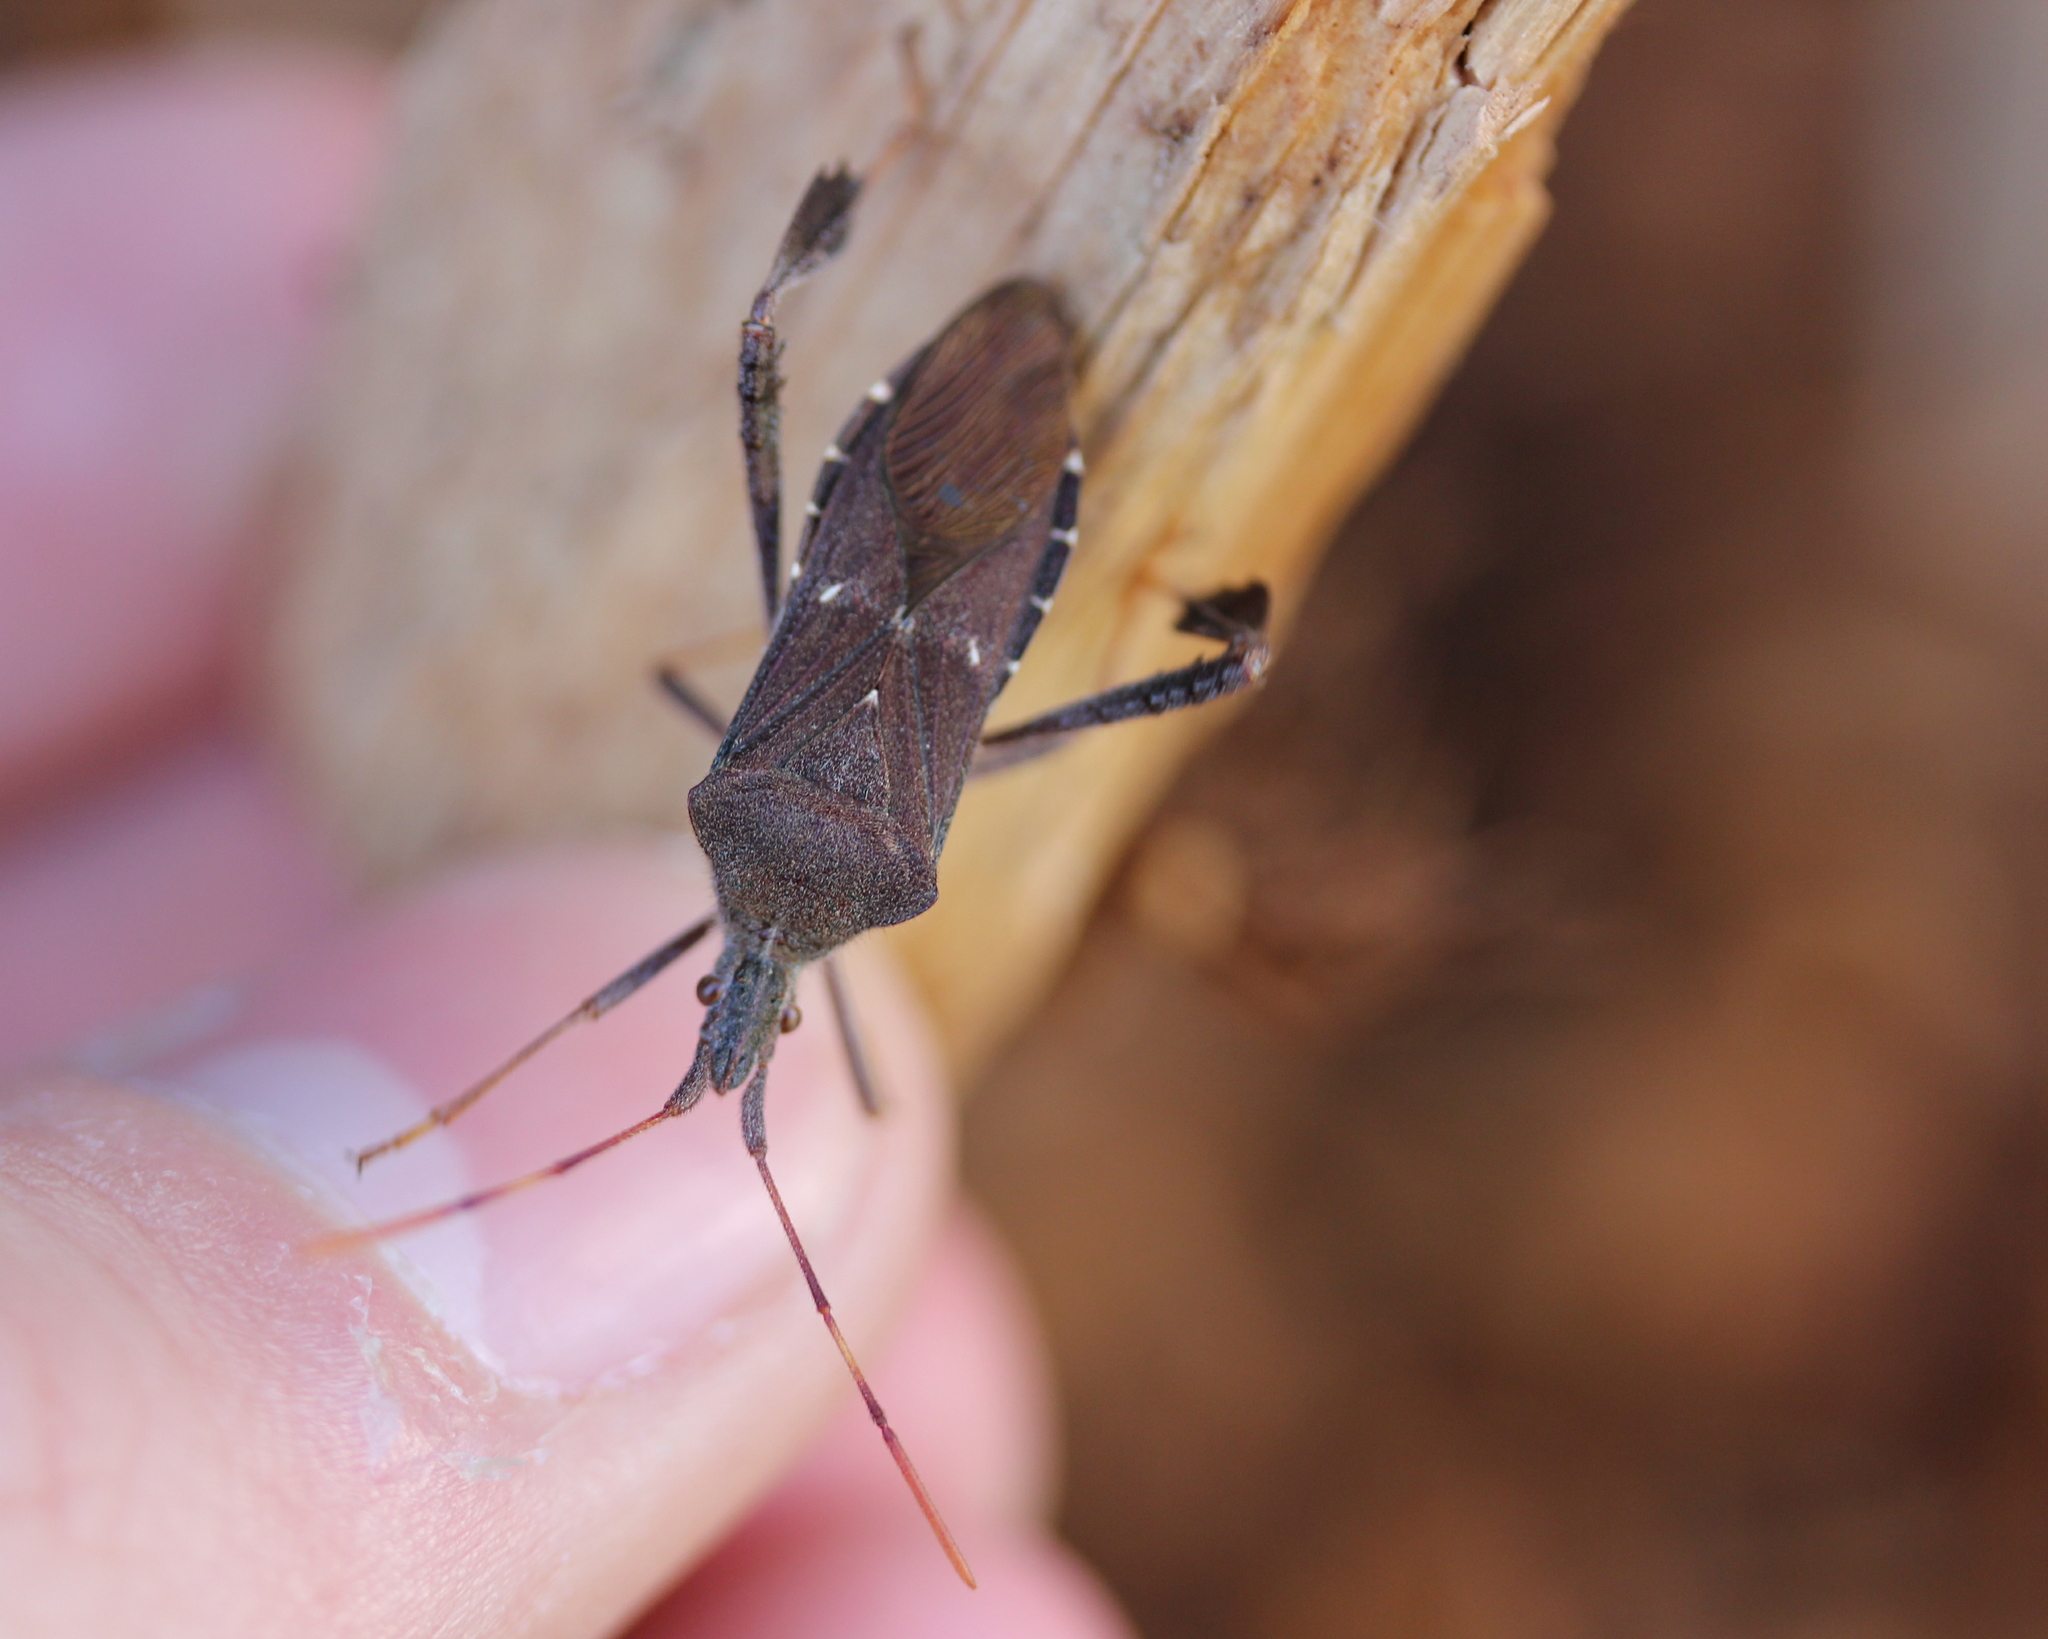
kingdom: Animalia
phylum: Arthropoda
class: Insecta
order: Hemiptera
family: Coreidae
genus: Leptoglossus
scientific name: Leptoglossus oppositus
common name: Northern leaf-footed bug
